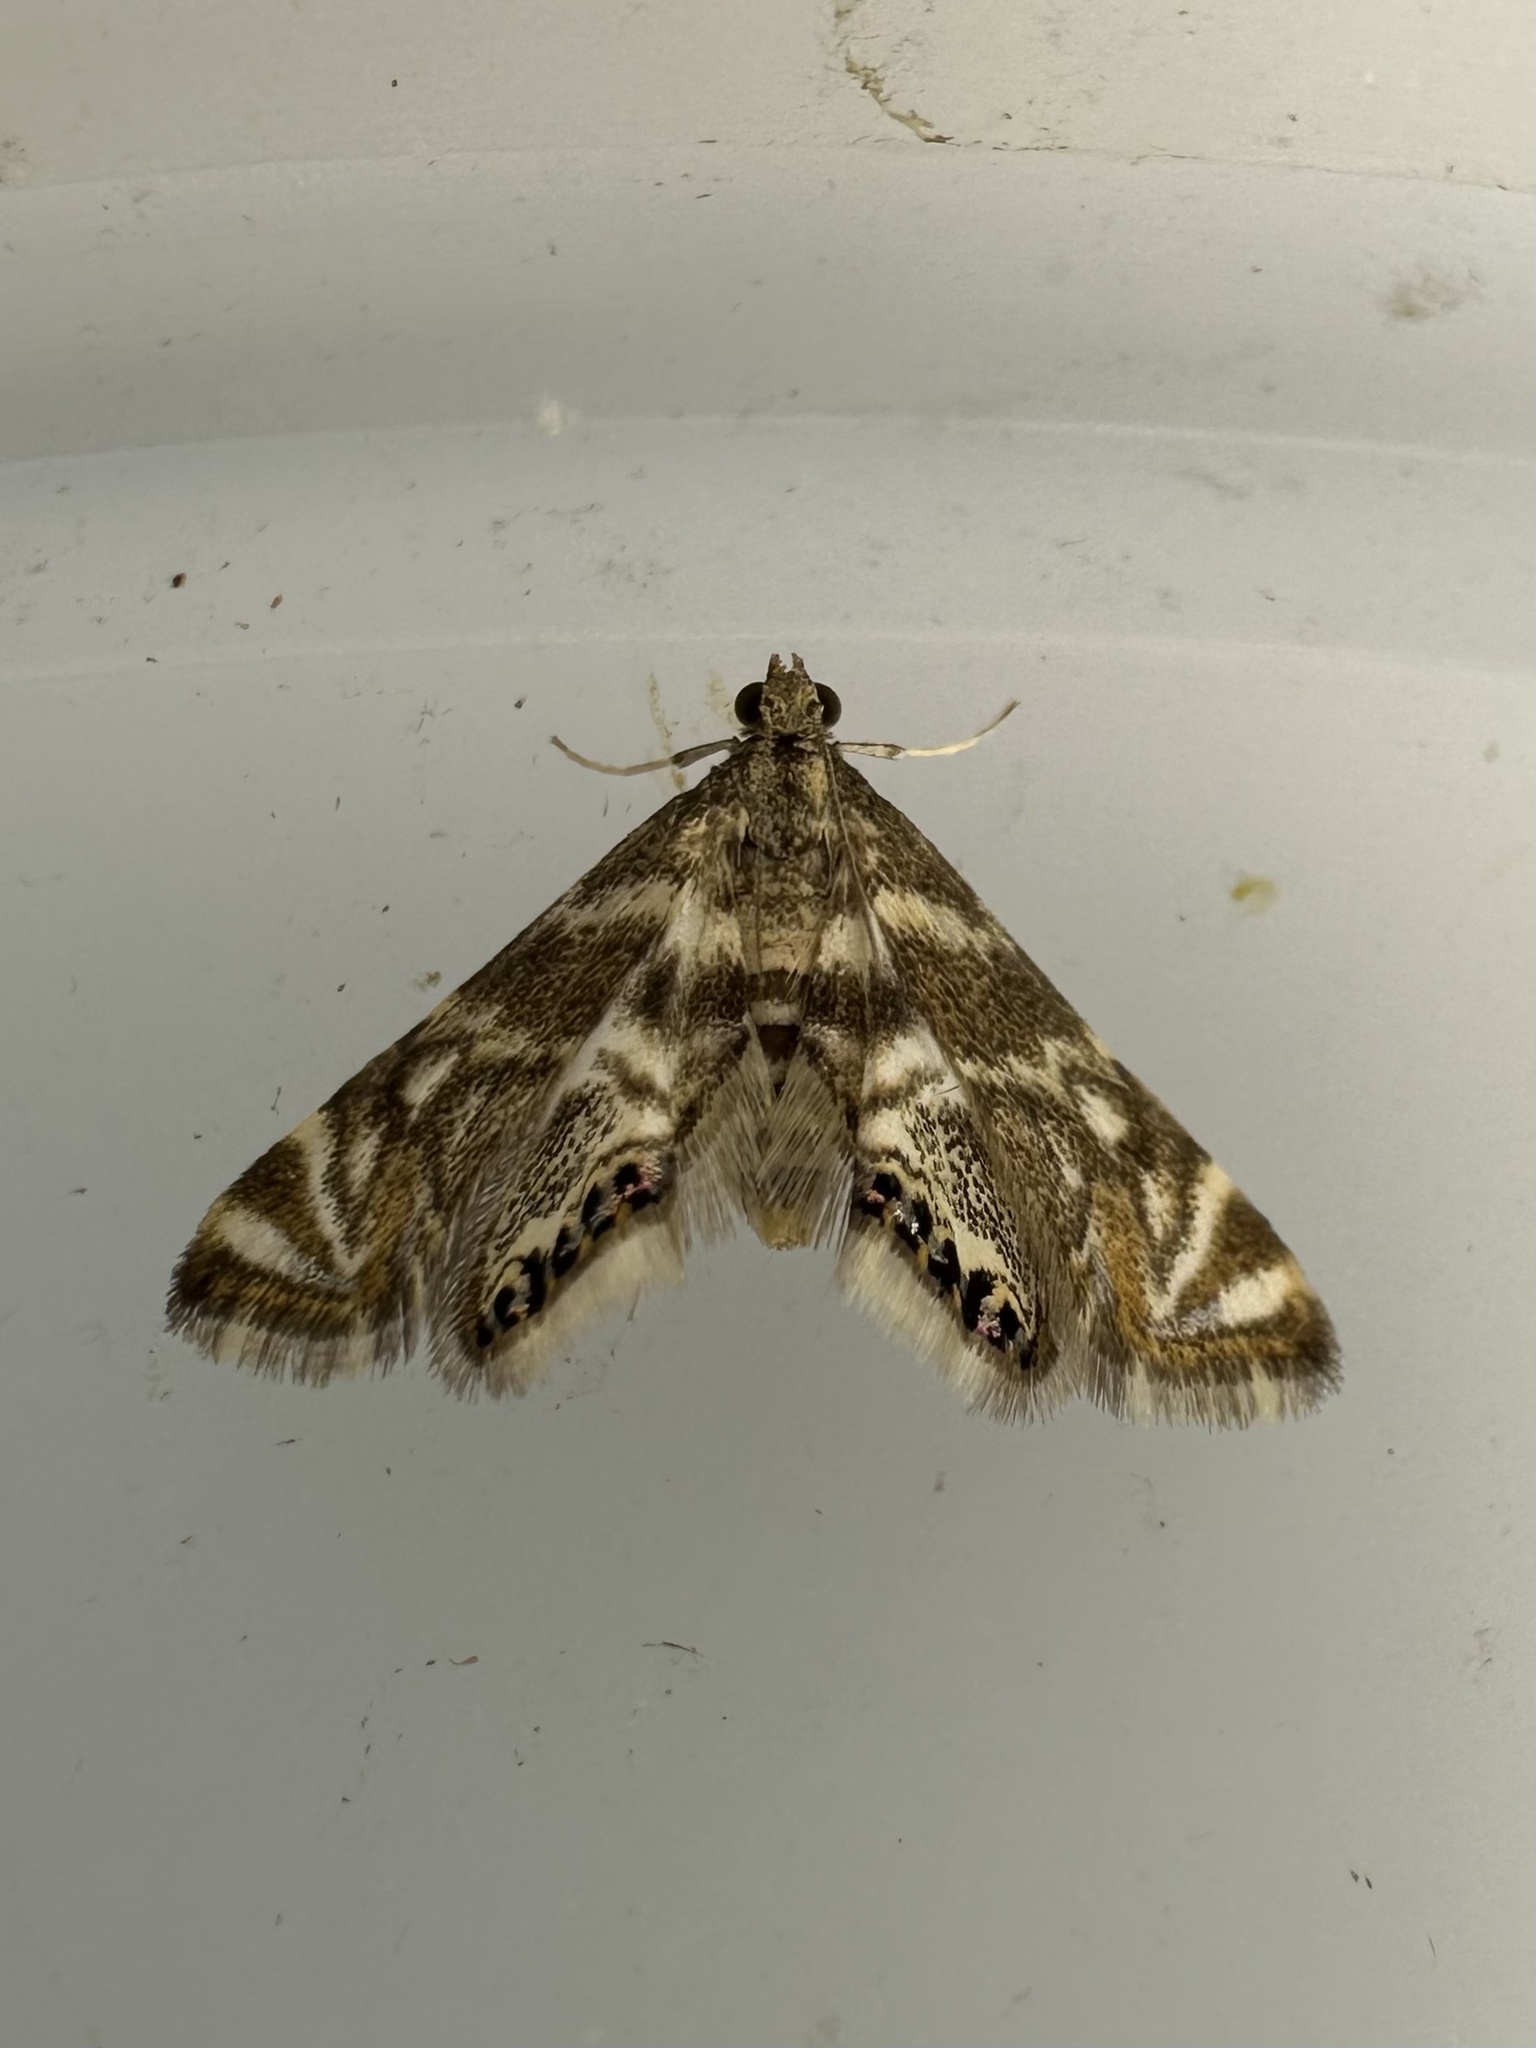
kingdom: Animalia
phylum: Arthropoda
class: Insecta
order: Lepidoptera
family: Crambidae
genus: Petrophila
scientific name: Petrophila canadensis
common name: Canadian petrophila
